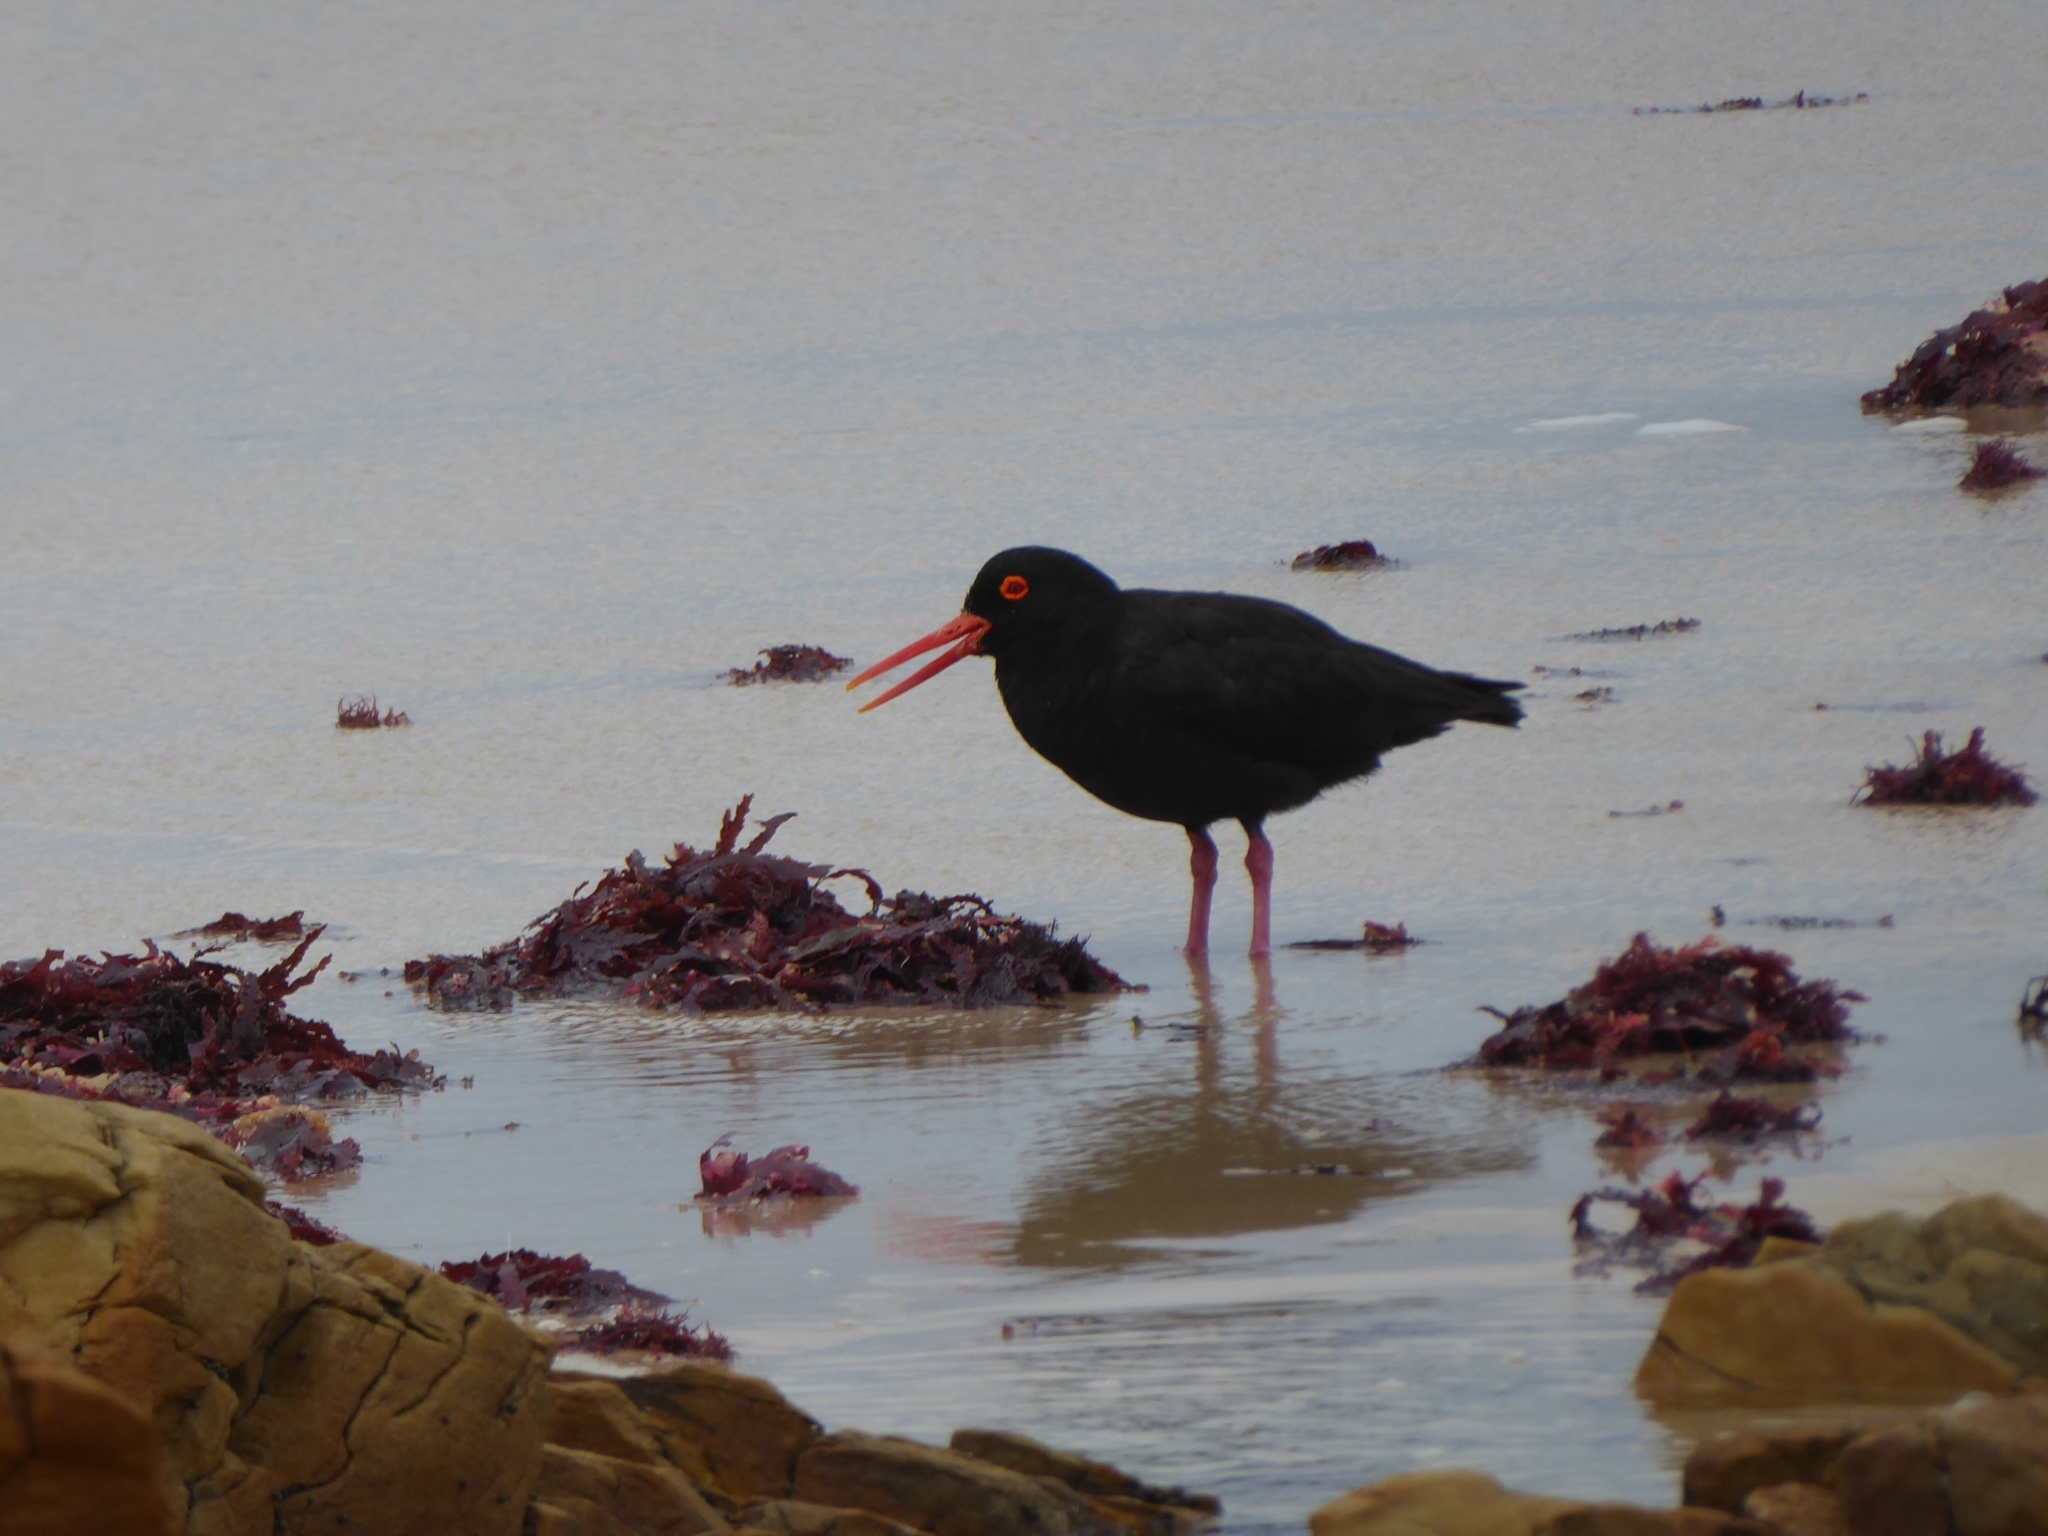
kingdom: Animalia
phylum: Chordata
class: Aves
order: Charadriiformes
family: Haematopodidae
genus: Haematopus
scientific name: Haematopus moquini
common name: African oystercatcher
